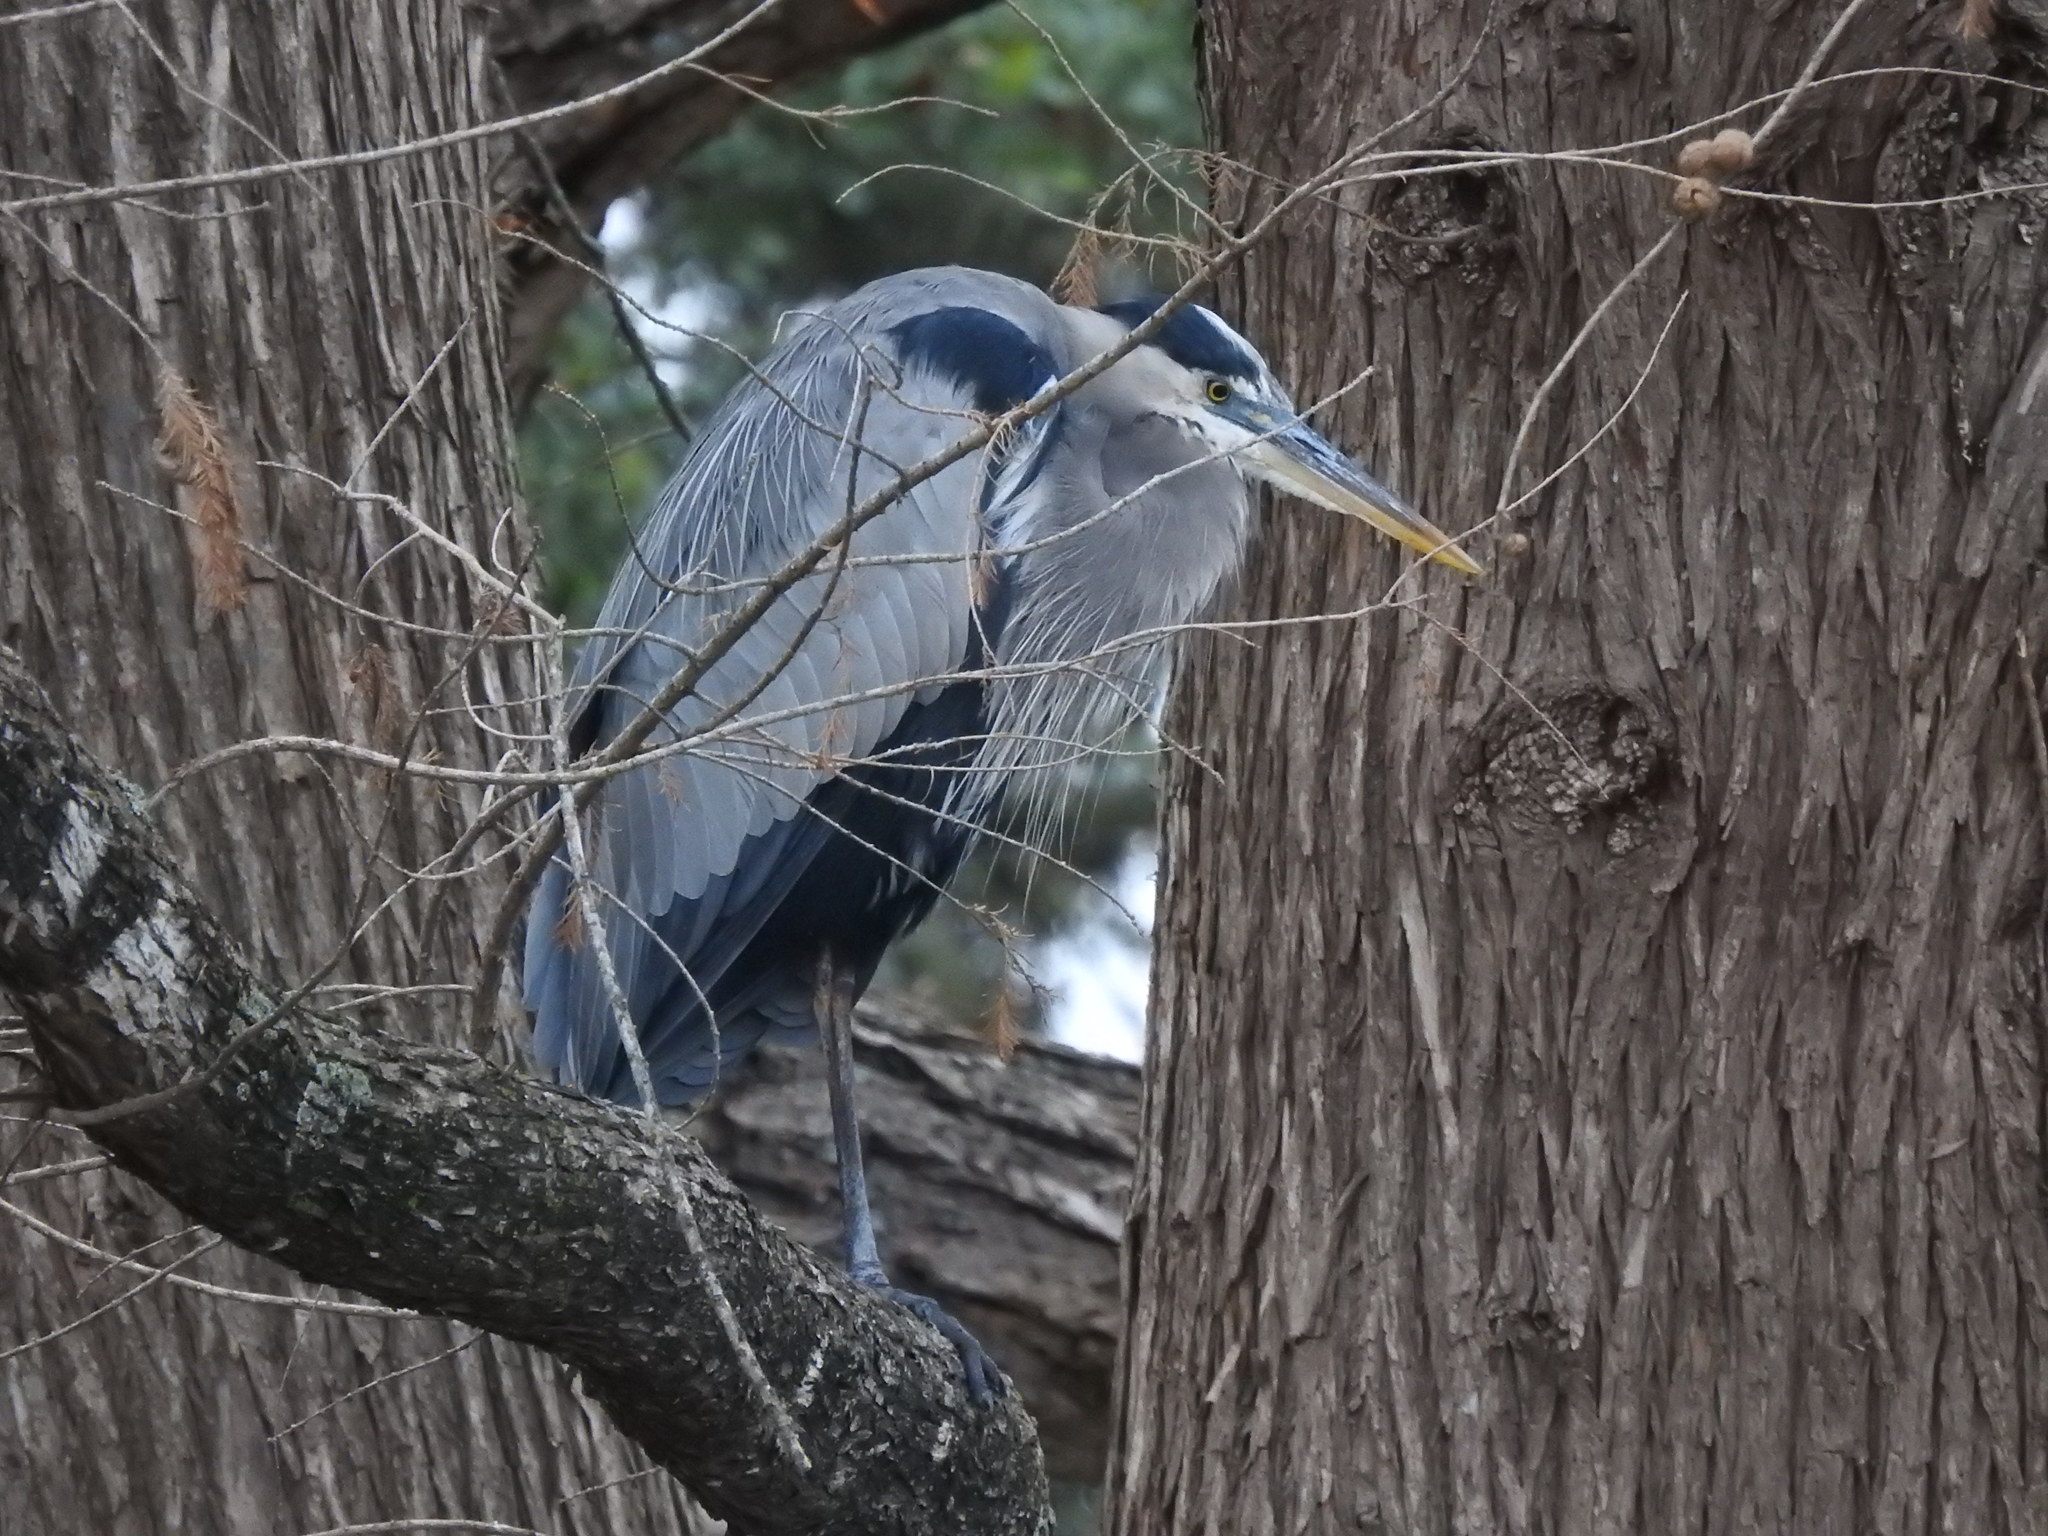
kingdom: Animalia
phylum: Chordata
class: Aves
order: Pelecaniformes
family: Ardeidae
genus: Ardea
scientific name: Ardea herodias
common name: Great blue heron
